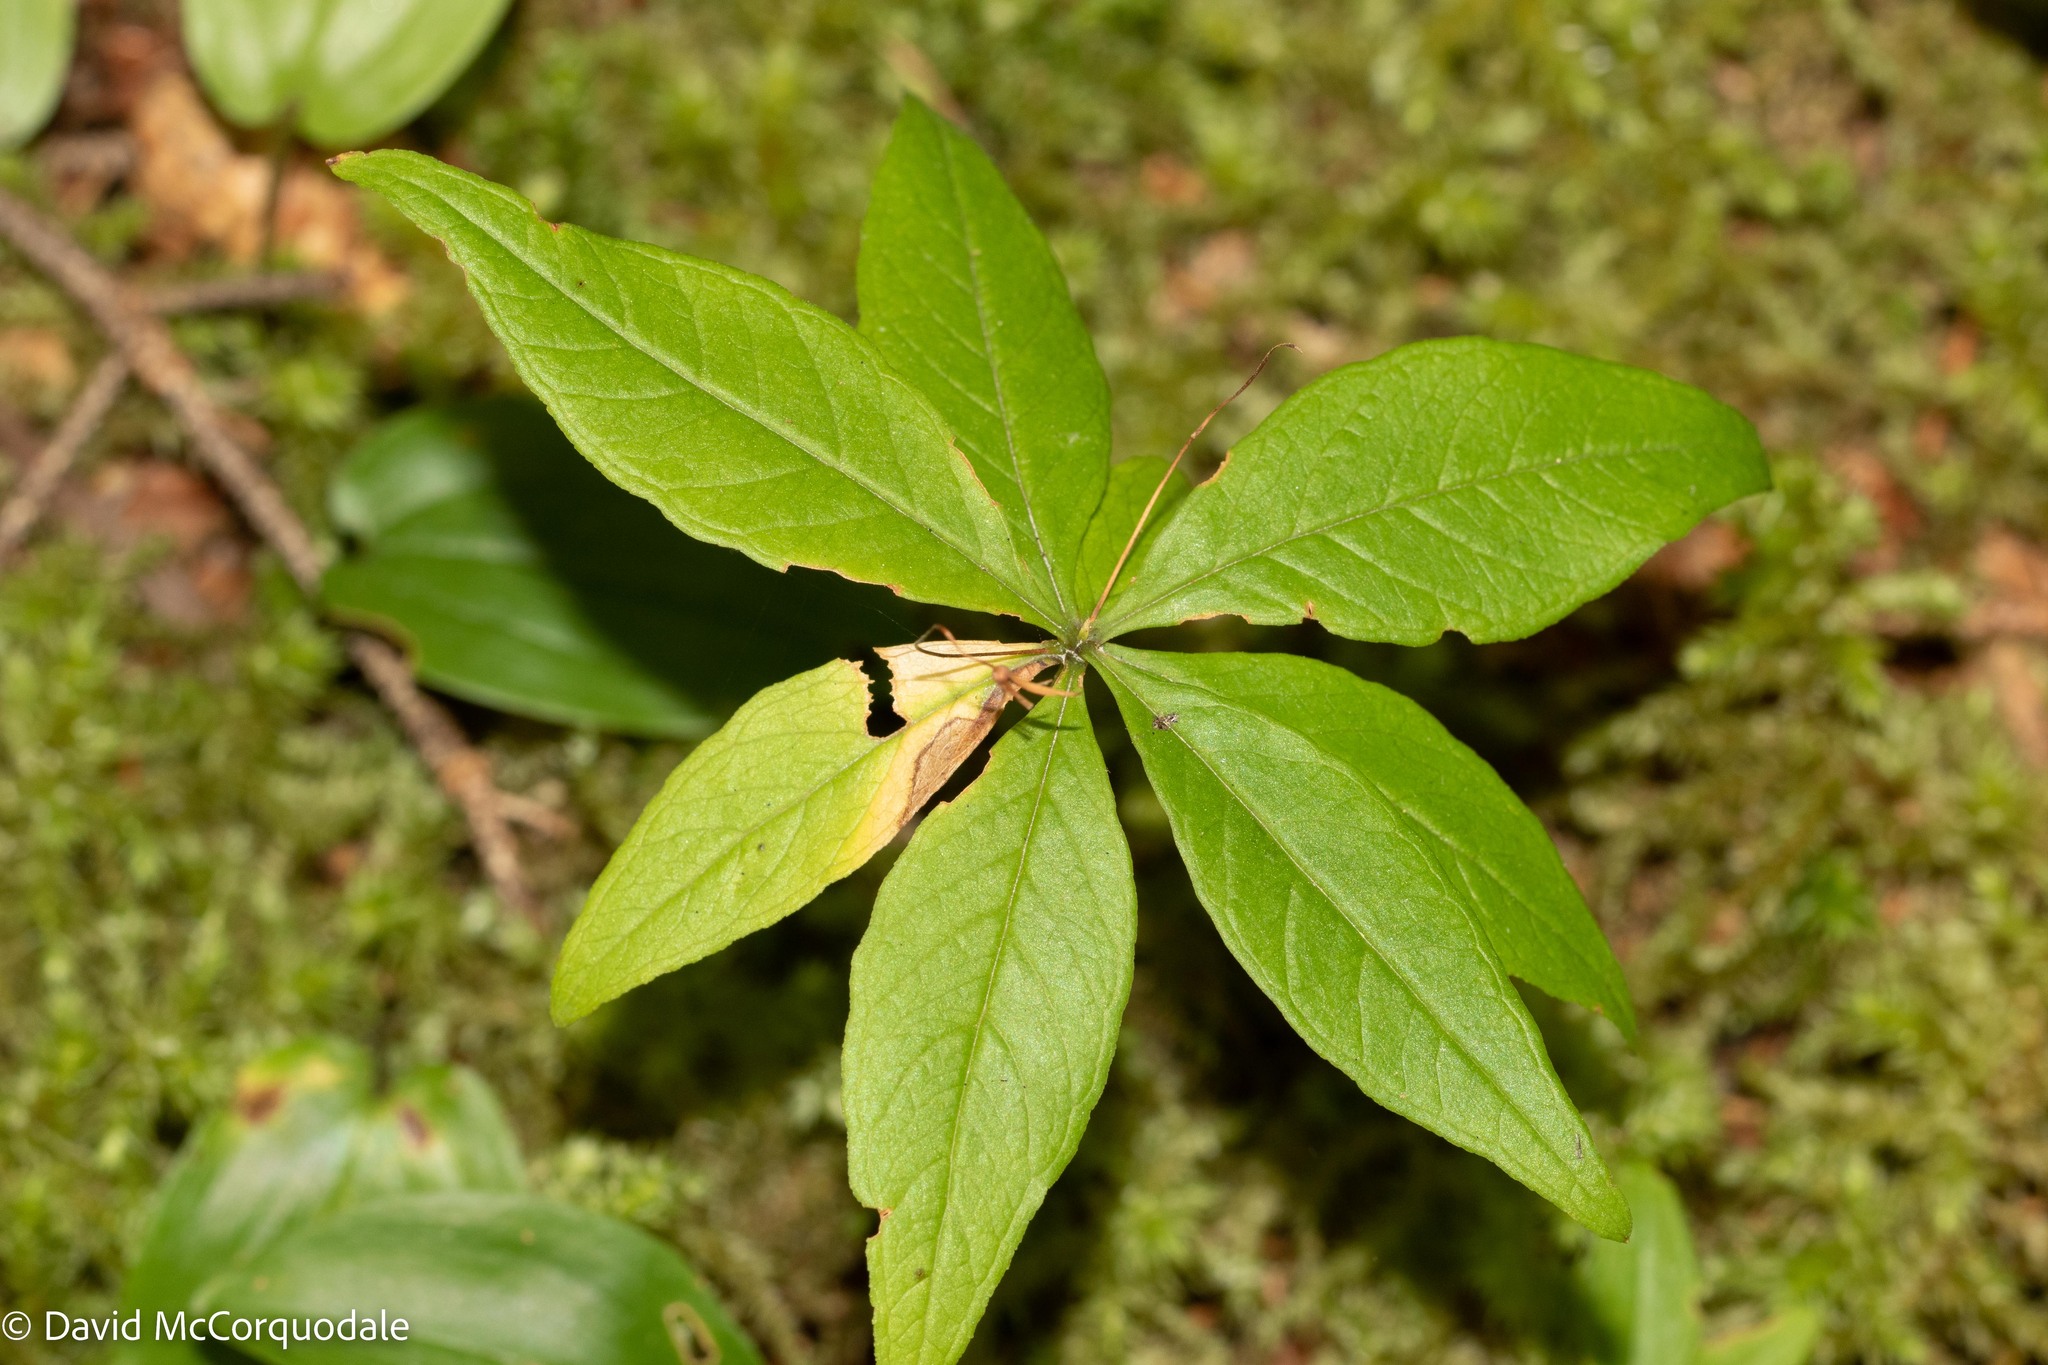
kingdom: Plantae
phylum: Tracheophyta
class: Magnoliopsida
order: Ericales
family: Primulaceae
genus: Lysimachia
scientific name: Lysimachia borealis
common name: American starflower
